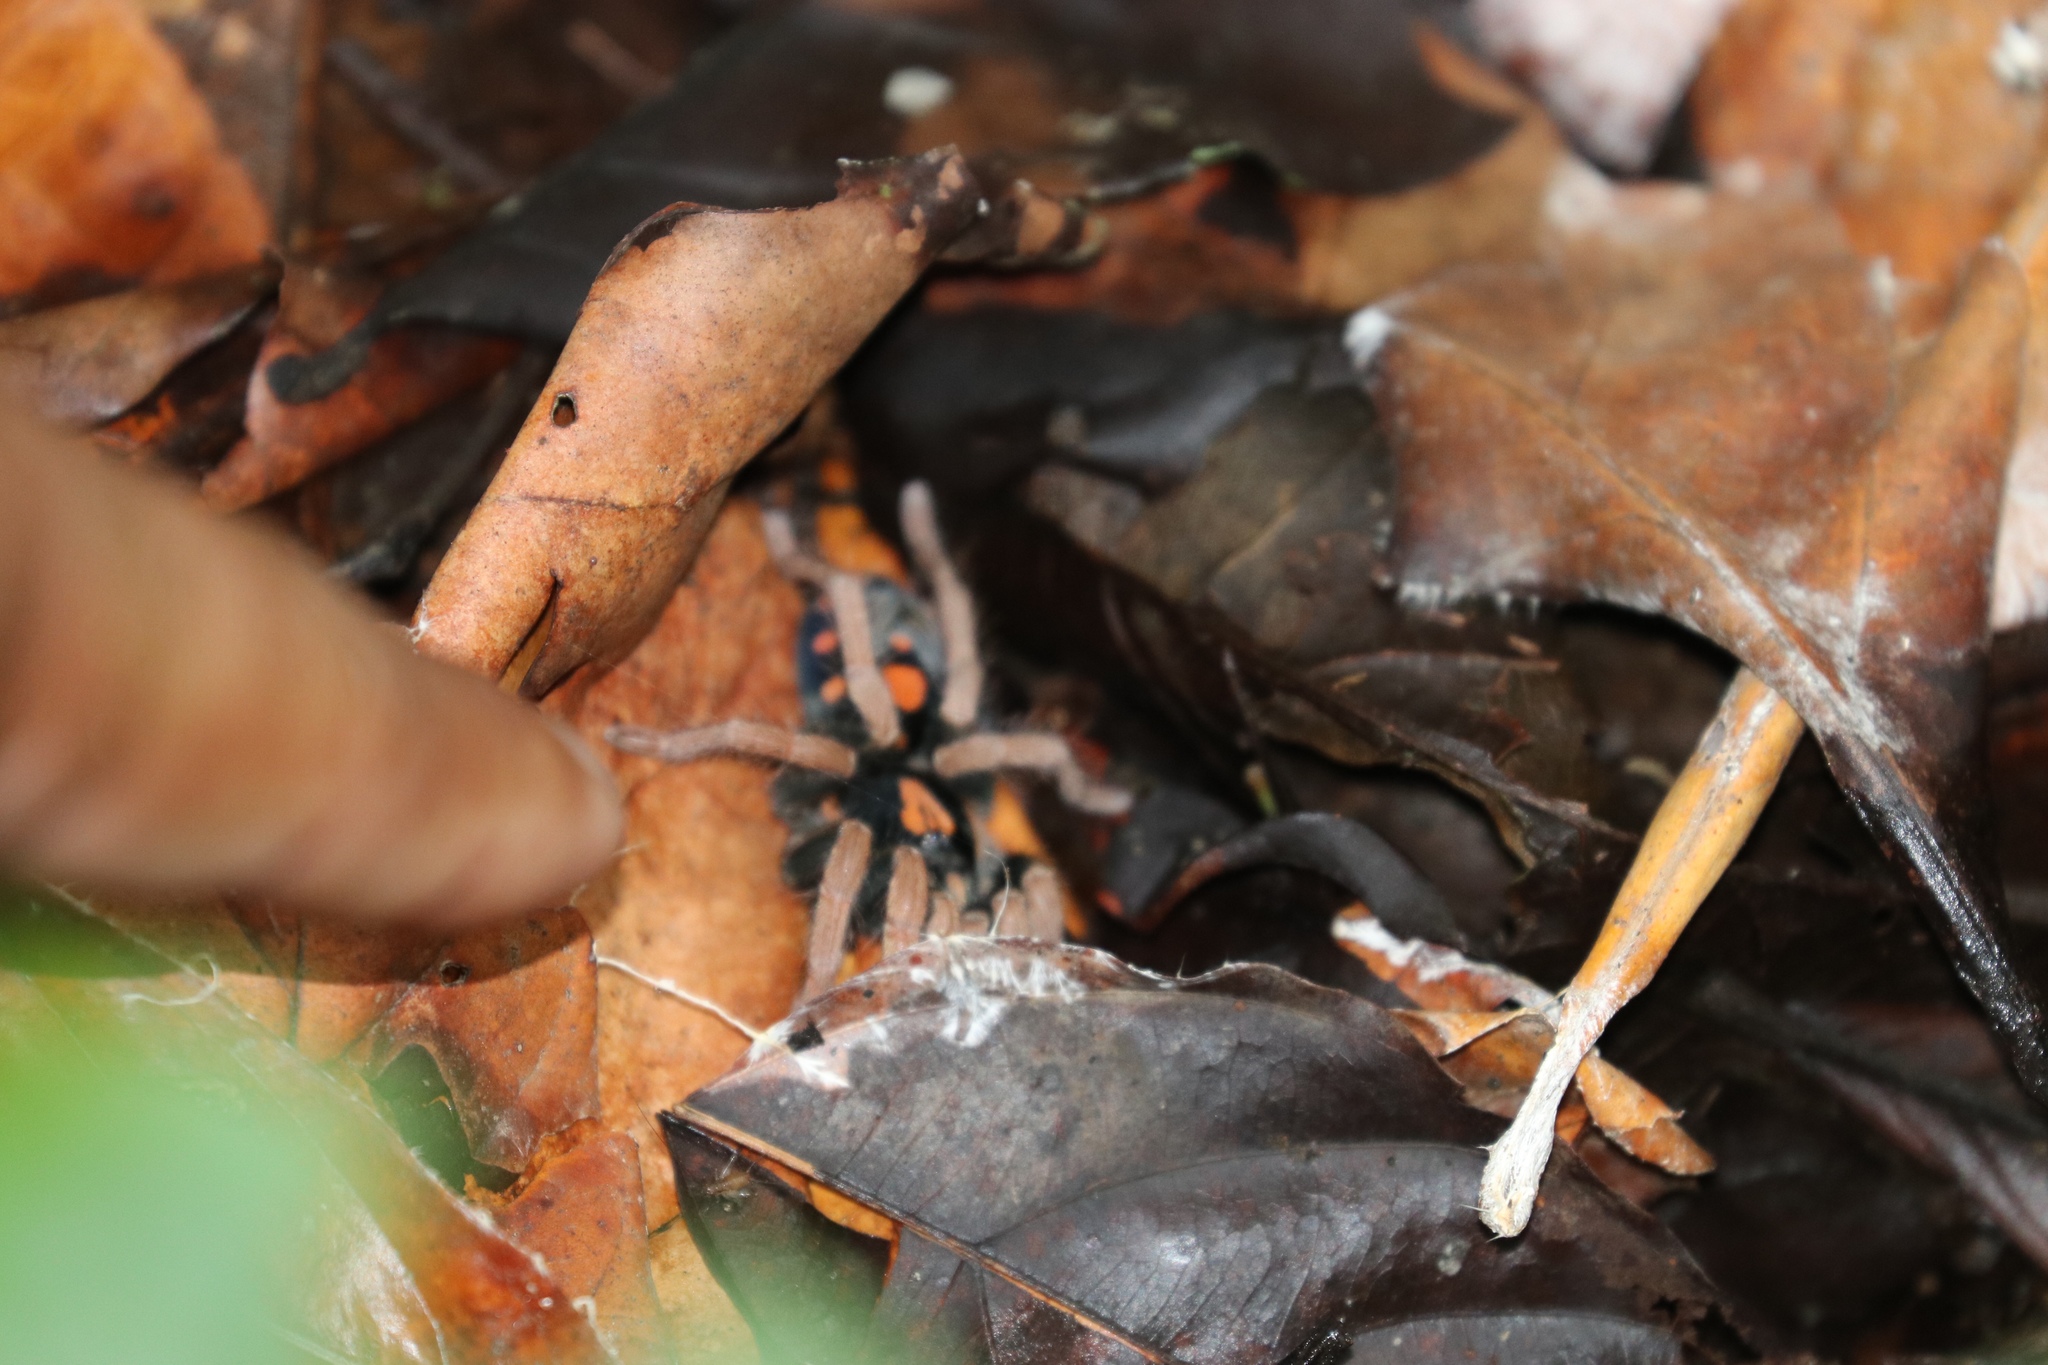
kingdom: Animalia
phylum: Arthropoda
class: Arachnida
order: Araneae
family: Theraphosidae
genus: Hapalopus
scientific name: Hapalopus coloratus
